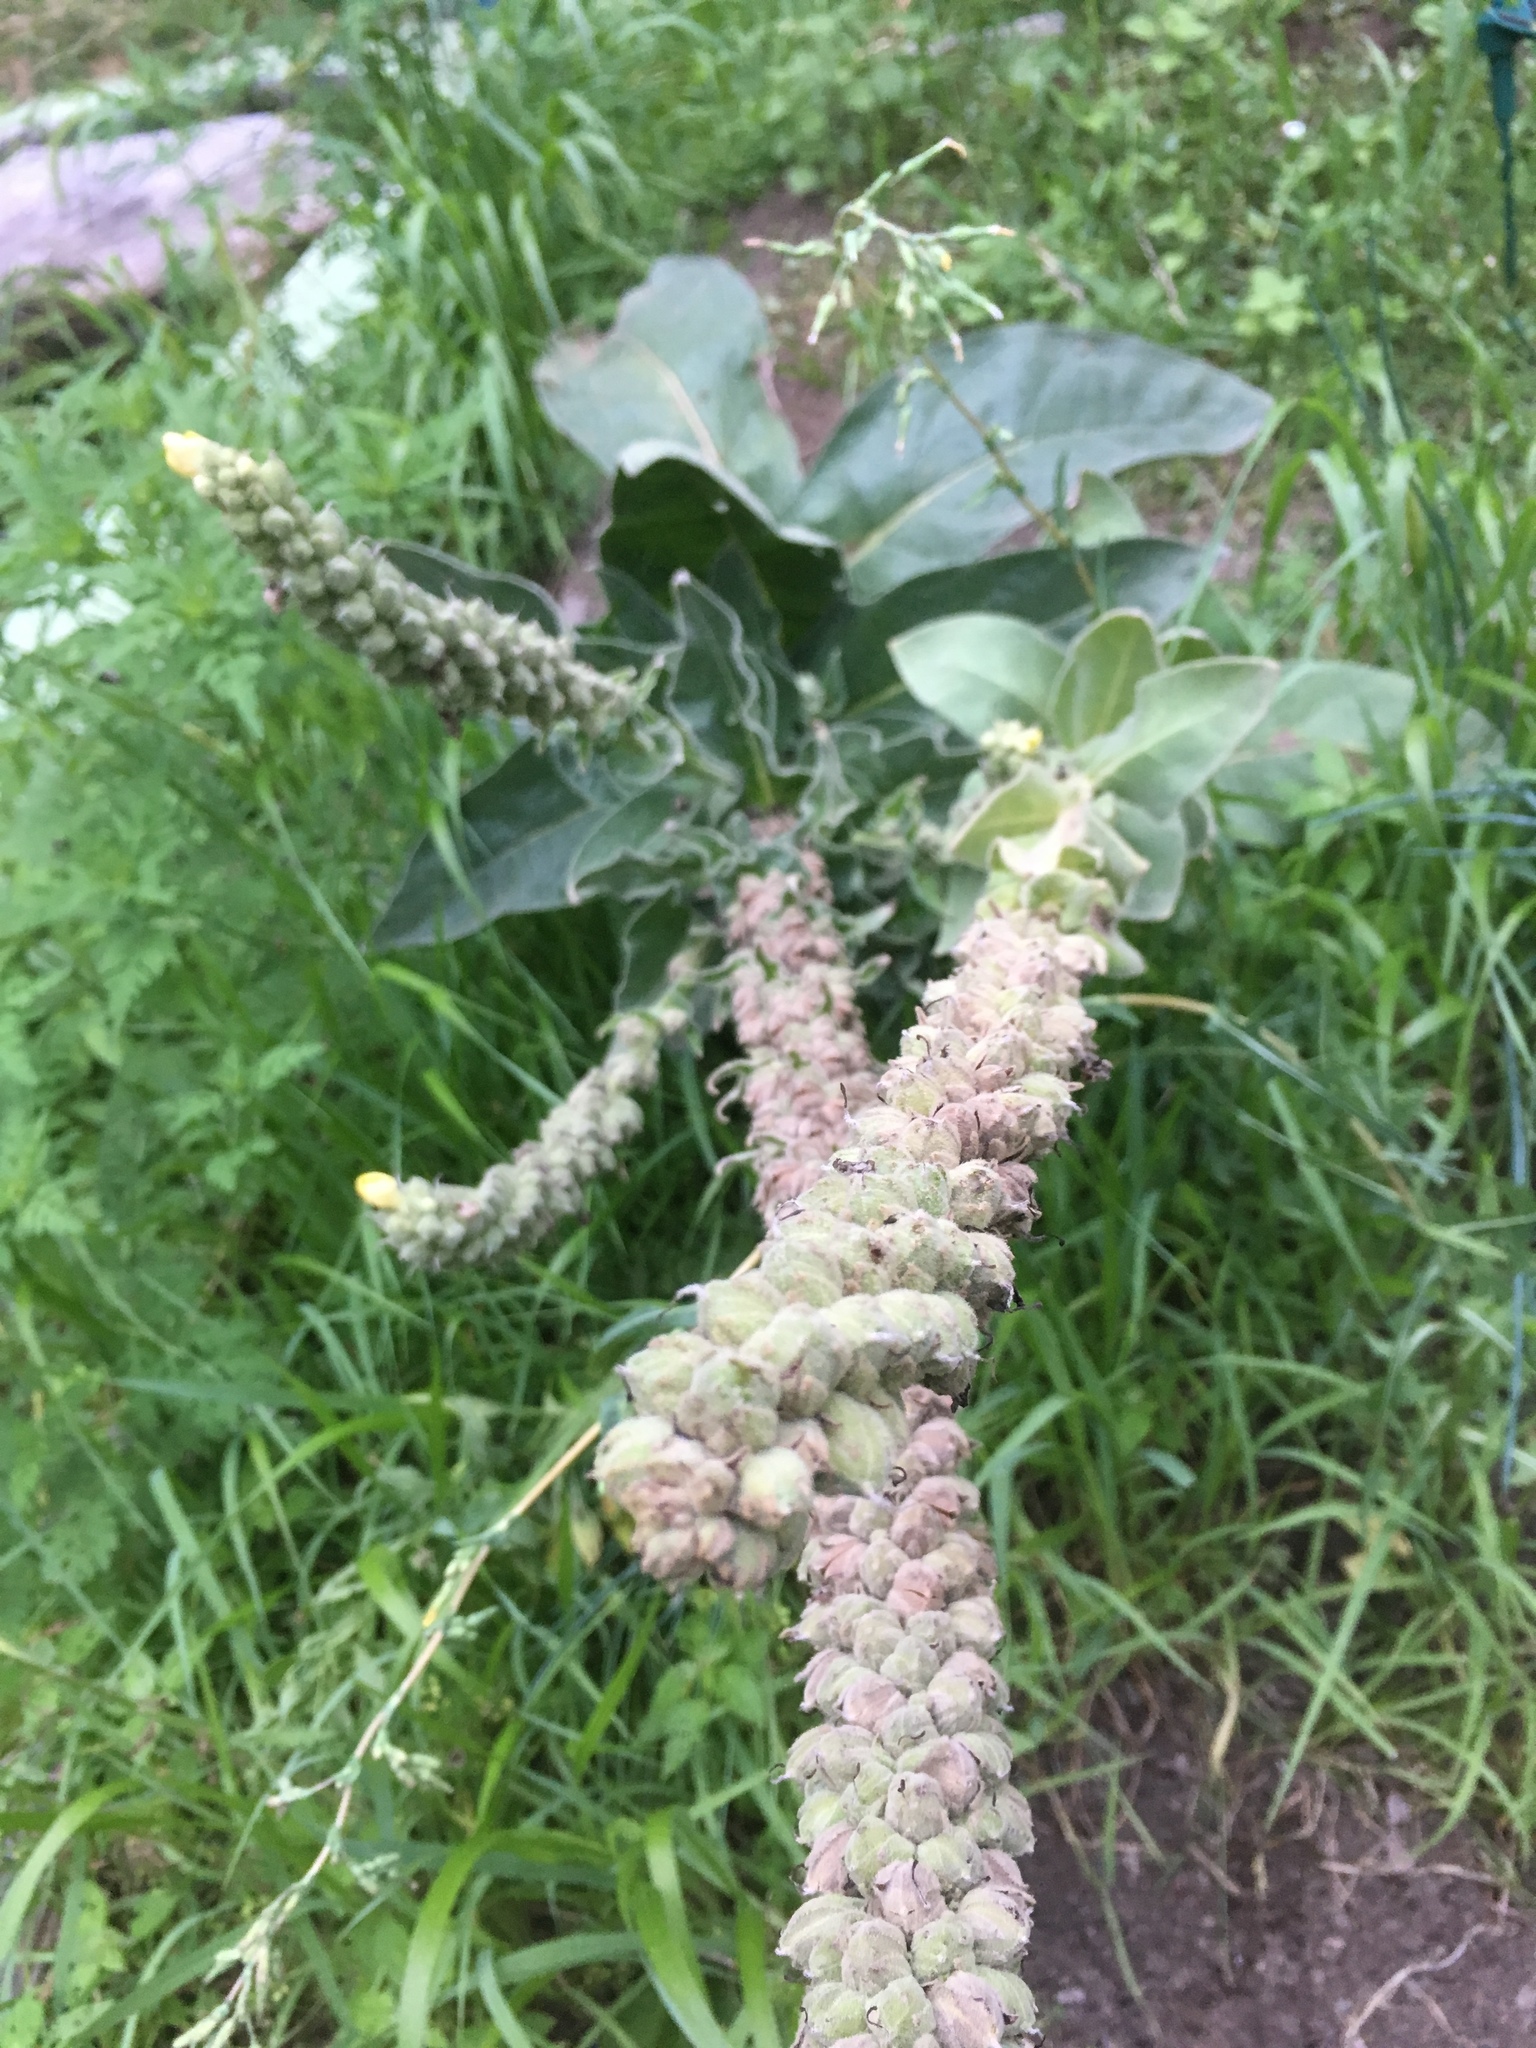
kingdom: Plantae
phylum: Tracheophyta
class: Magnoliopsida
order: Lamiales
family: Scrophulariaceae
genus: Verbascum
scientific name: Verbascum thapsus
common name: Common mullein
